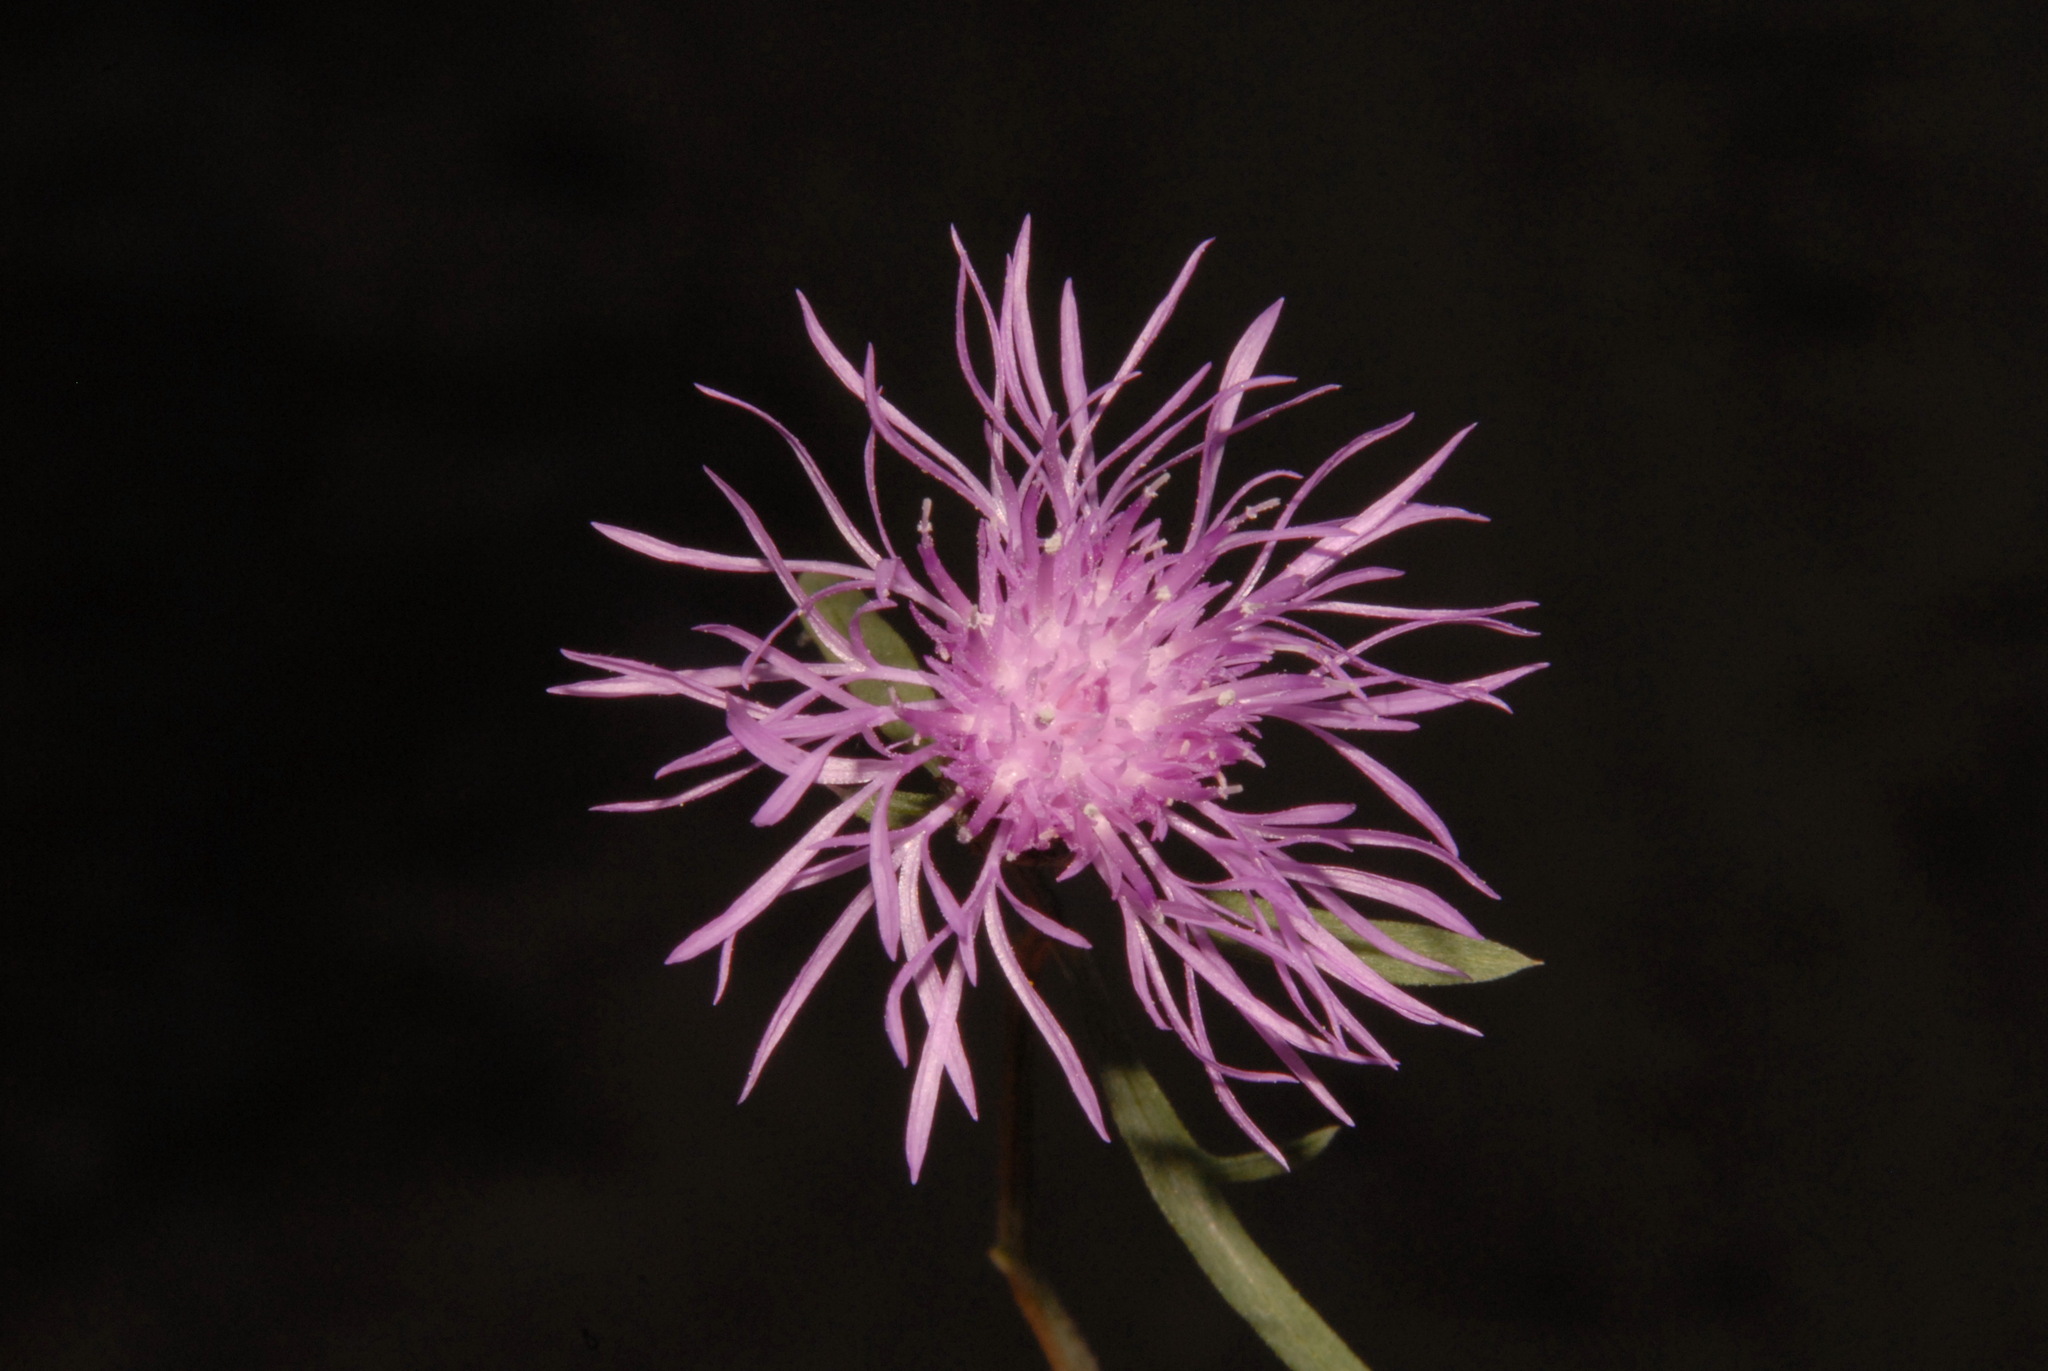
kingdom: Plantae
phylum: Tracheophyta
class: Magnoliopsida
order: Asterales
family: Asteraceae
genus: Centaurea
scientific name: Centaurea australis
